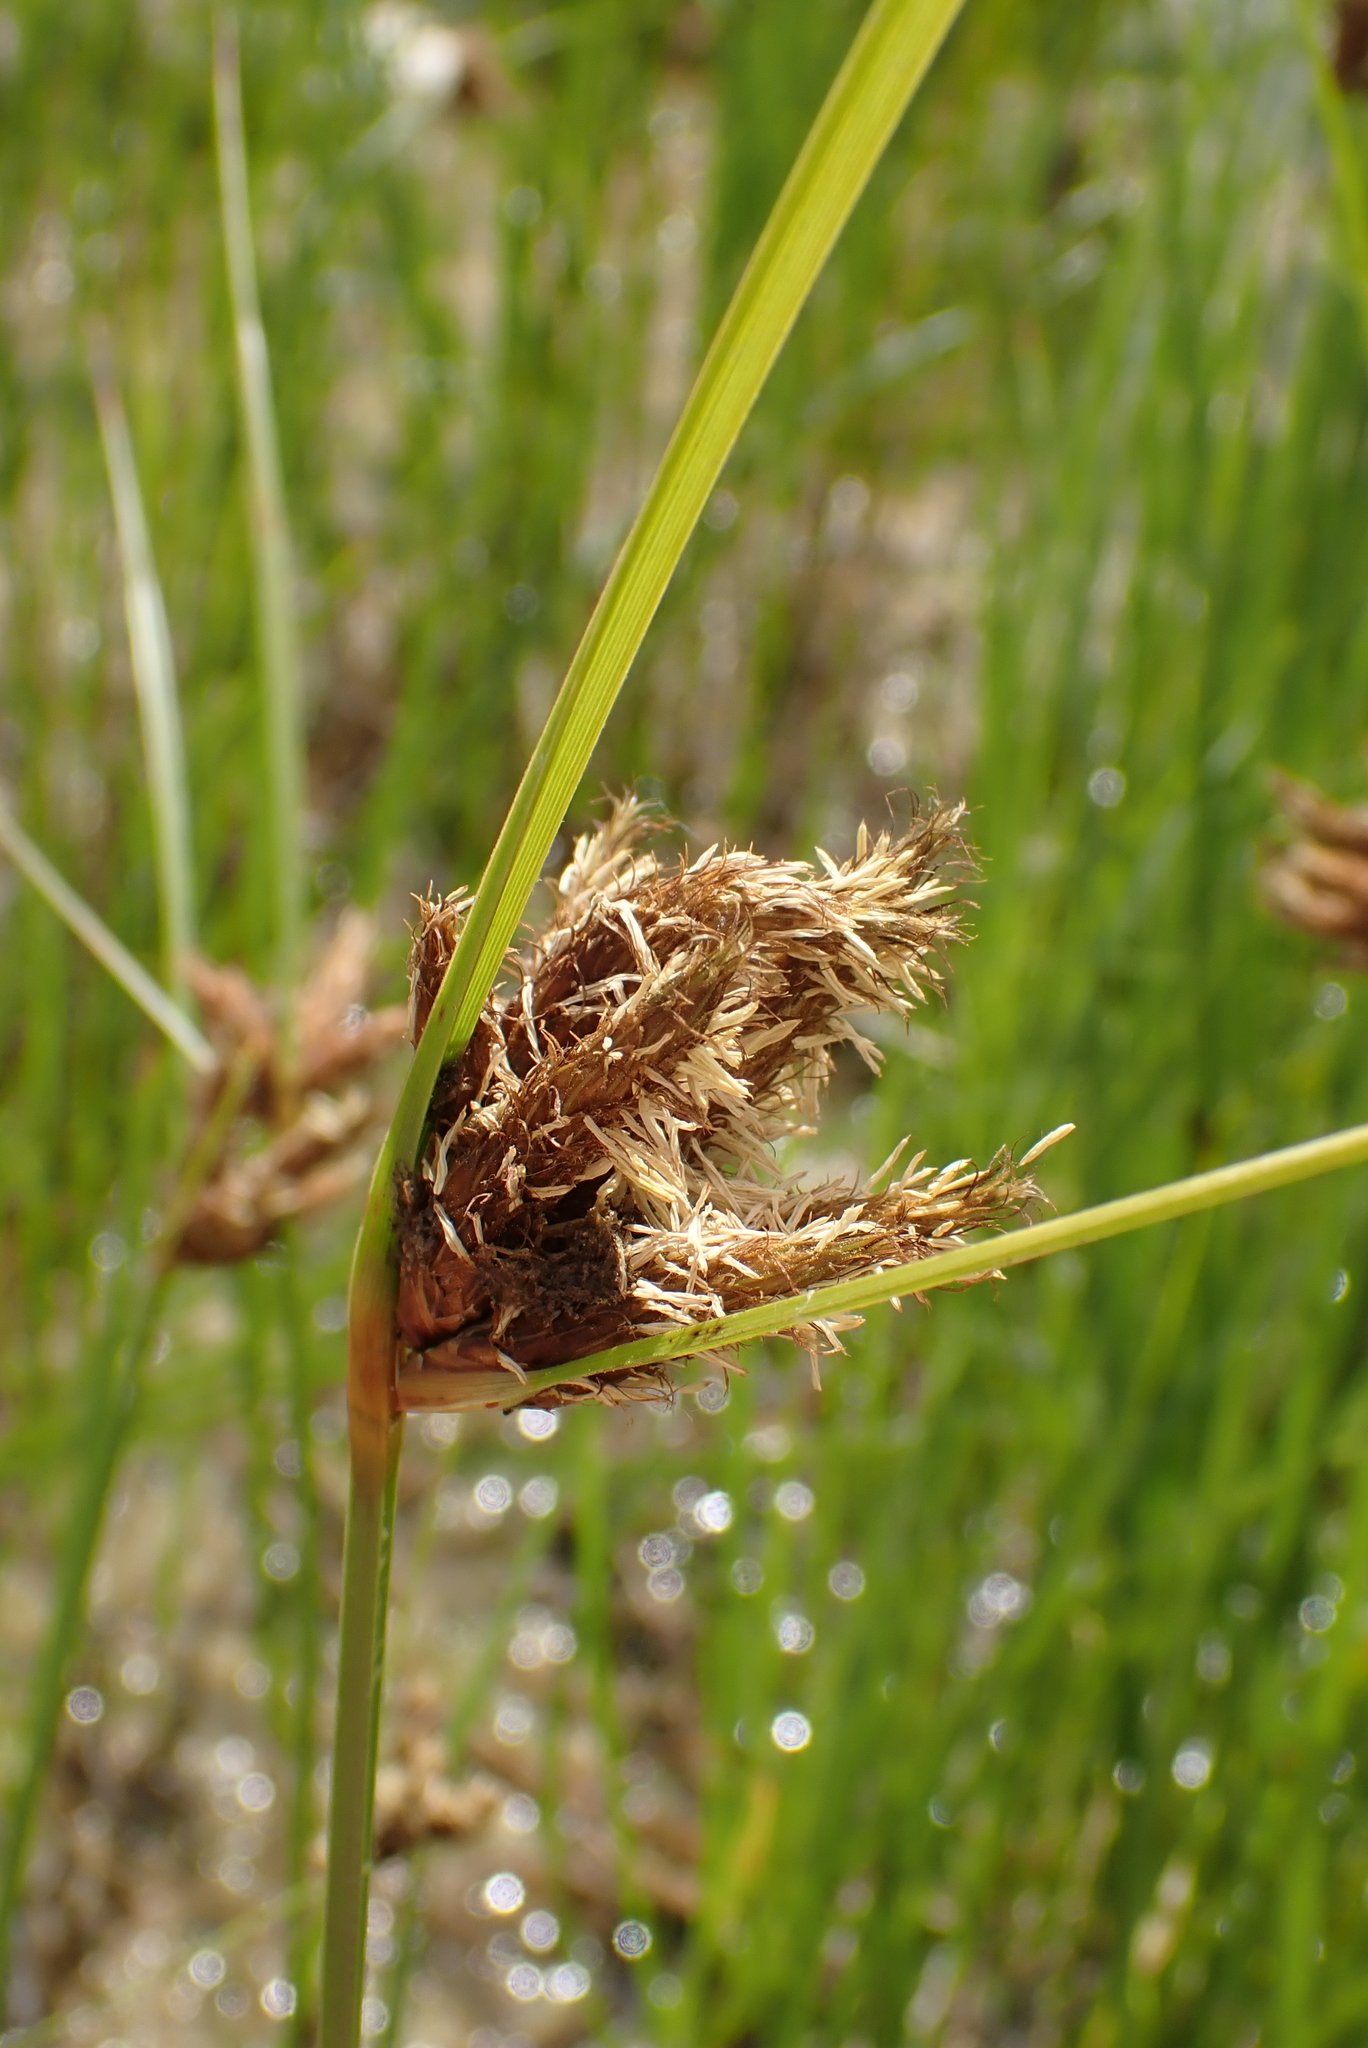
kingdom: Plantae
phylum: Tracheophyta
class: Liliopsida
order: Poales
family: Cyperaceae
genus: Bolboschoenus
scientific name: Bolboschoenus maritimus
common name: Sea club-rush
